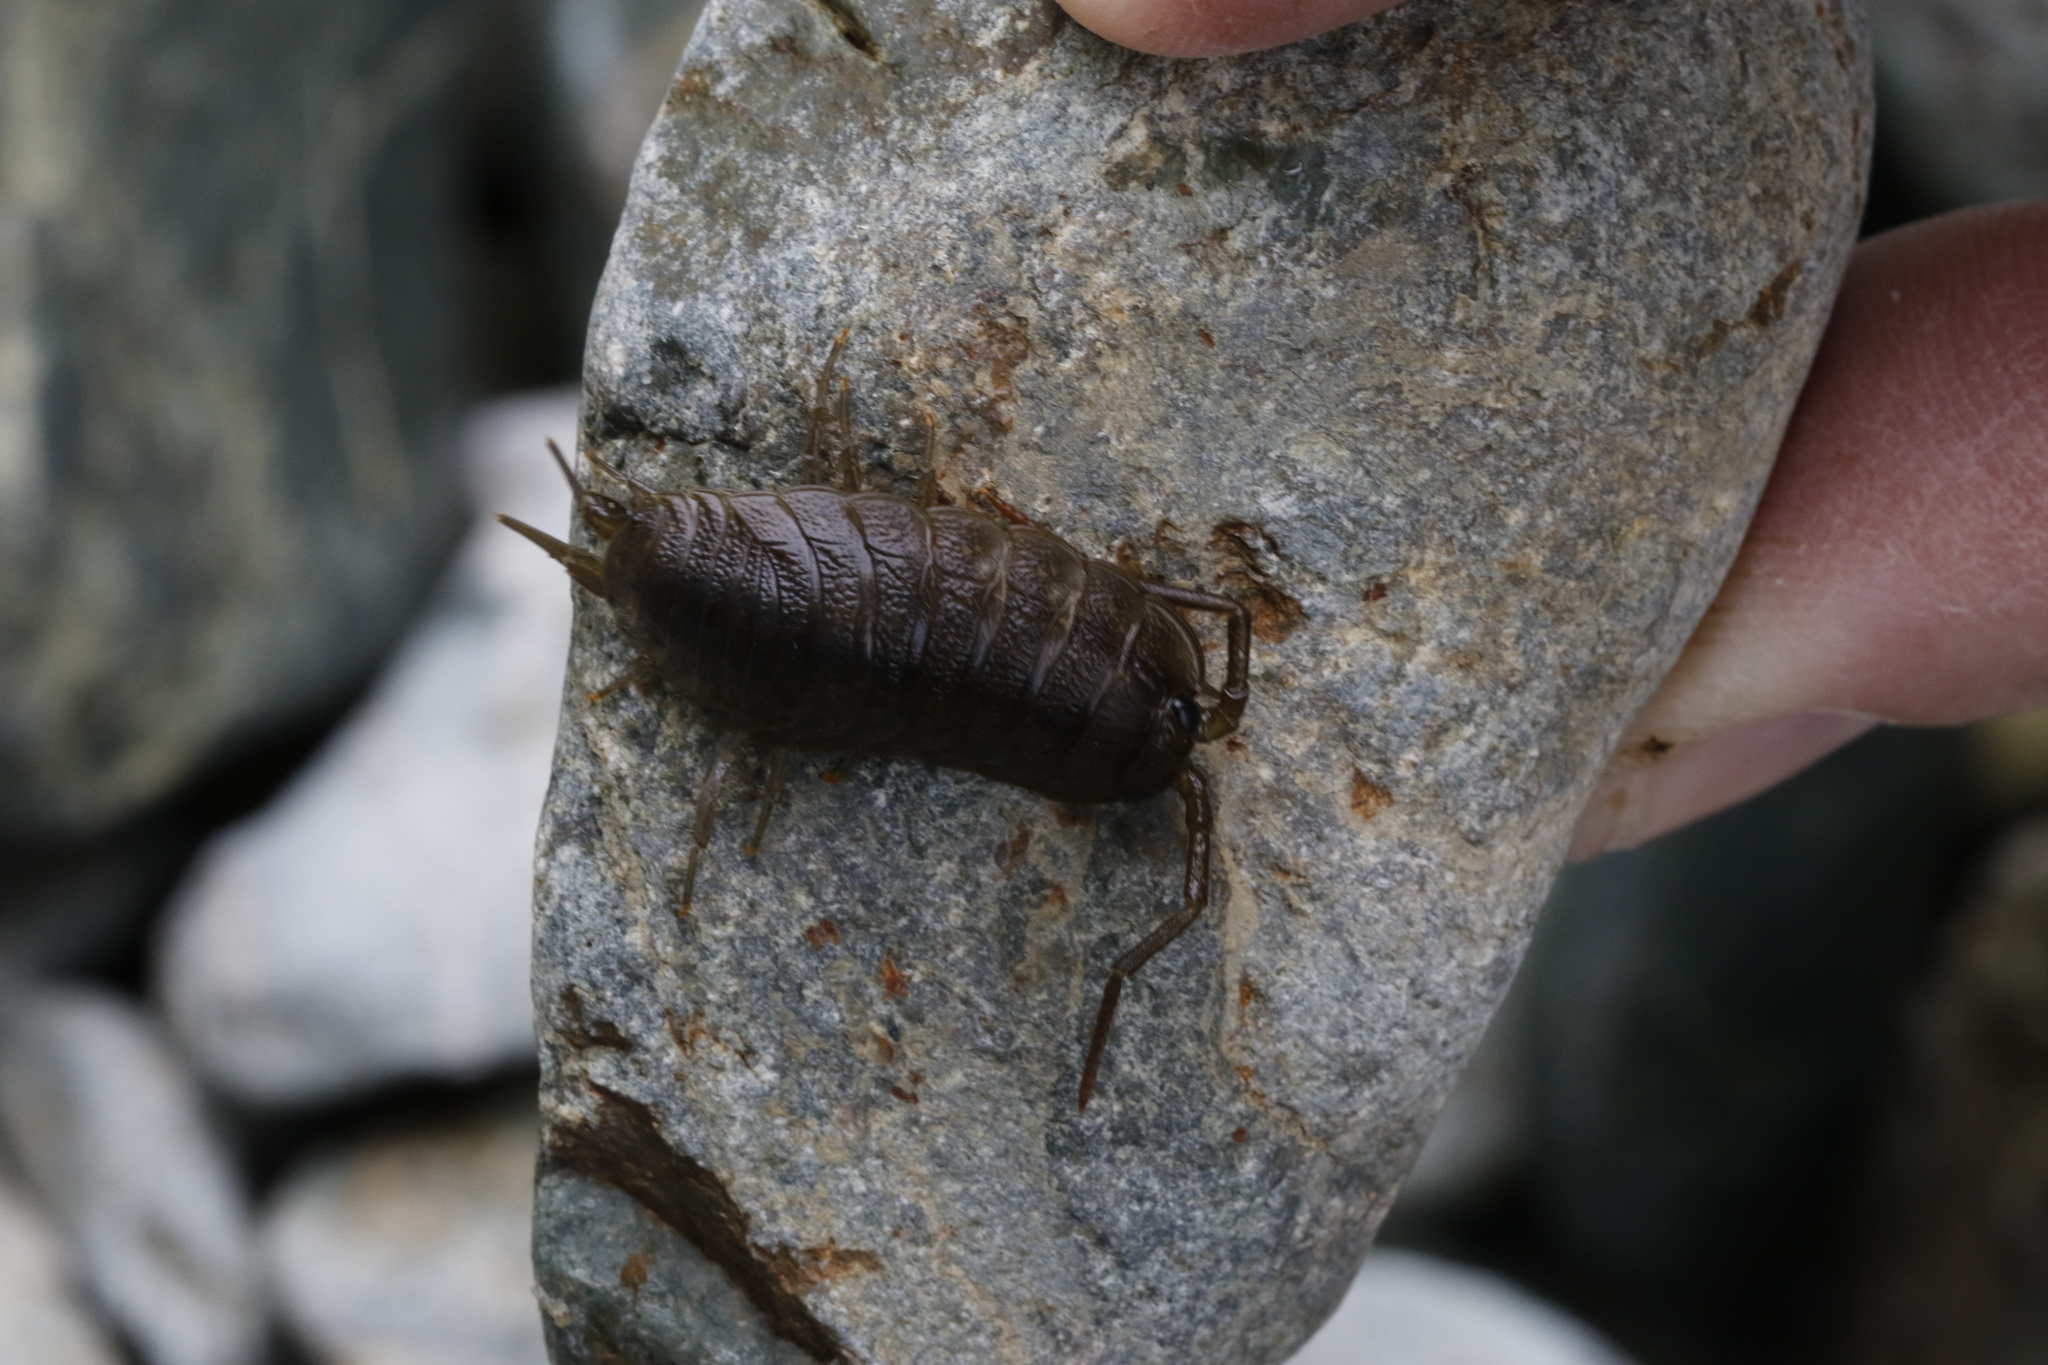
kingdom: Animalia
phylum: Arthropoda
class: Malacostraca
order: Isopoda
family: Ligiidae
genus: Ligia
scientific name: Ligia oceanica
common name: Sea slater
